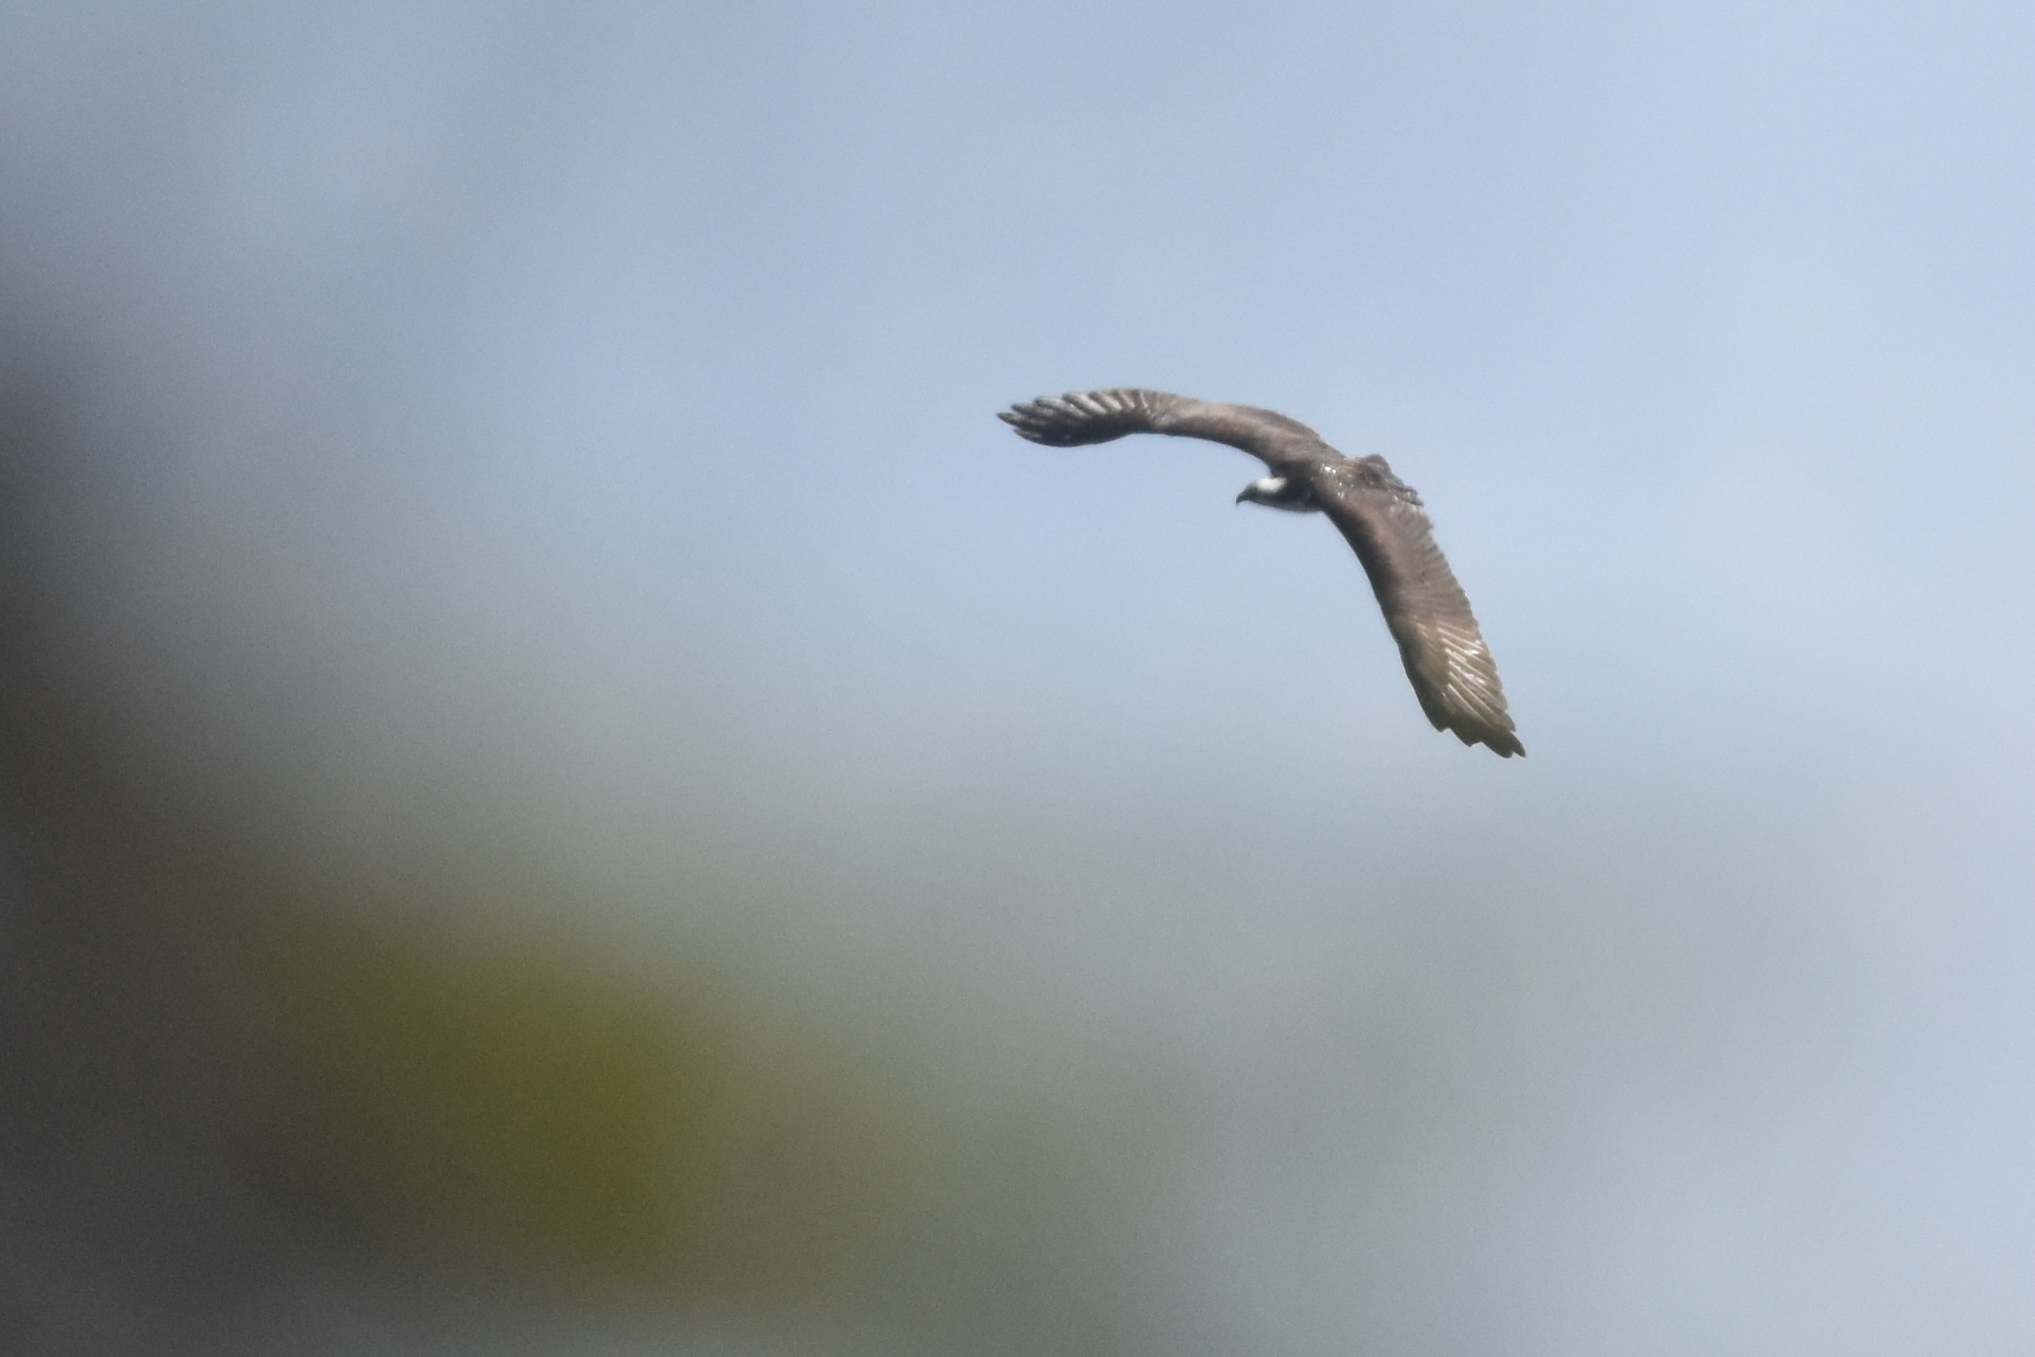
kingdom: Animalia
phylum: Chordata
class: Aves
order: Accipitriformes
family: Pandionidae
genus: Pandion
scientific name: Pandion haliaetus
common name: Osprey
